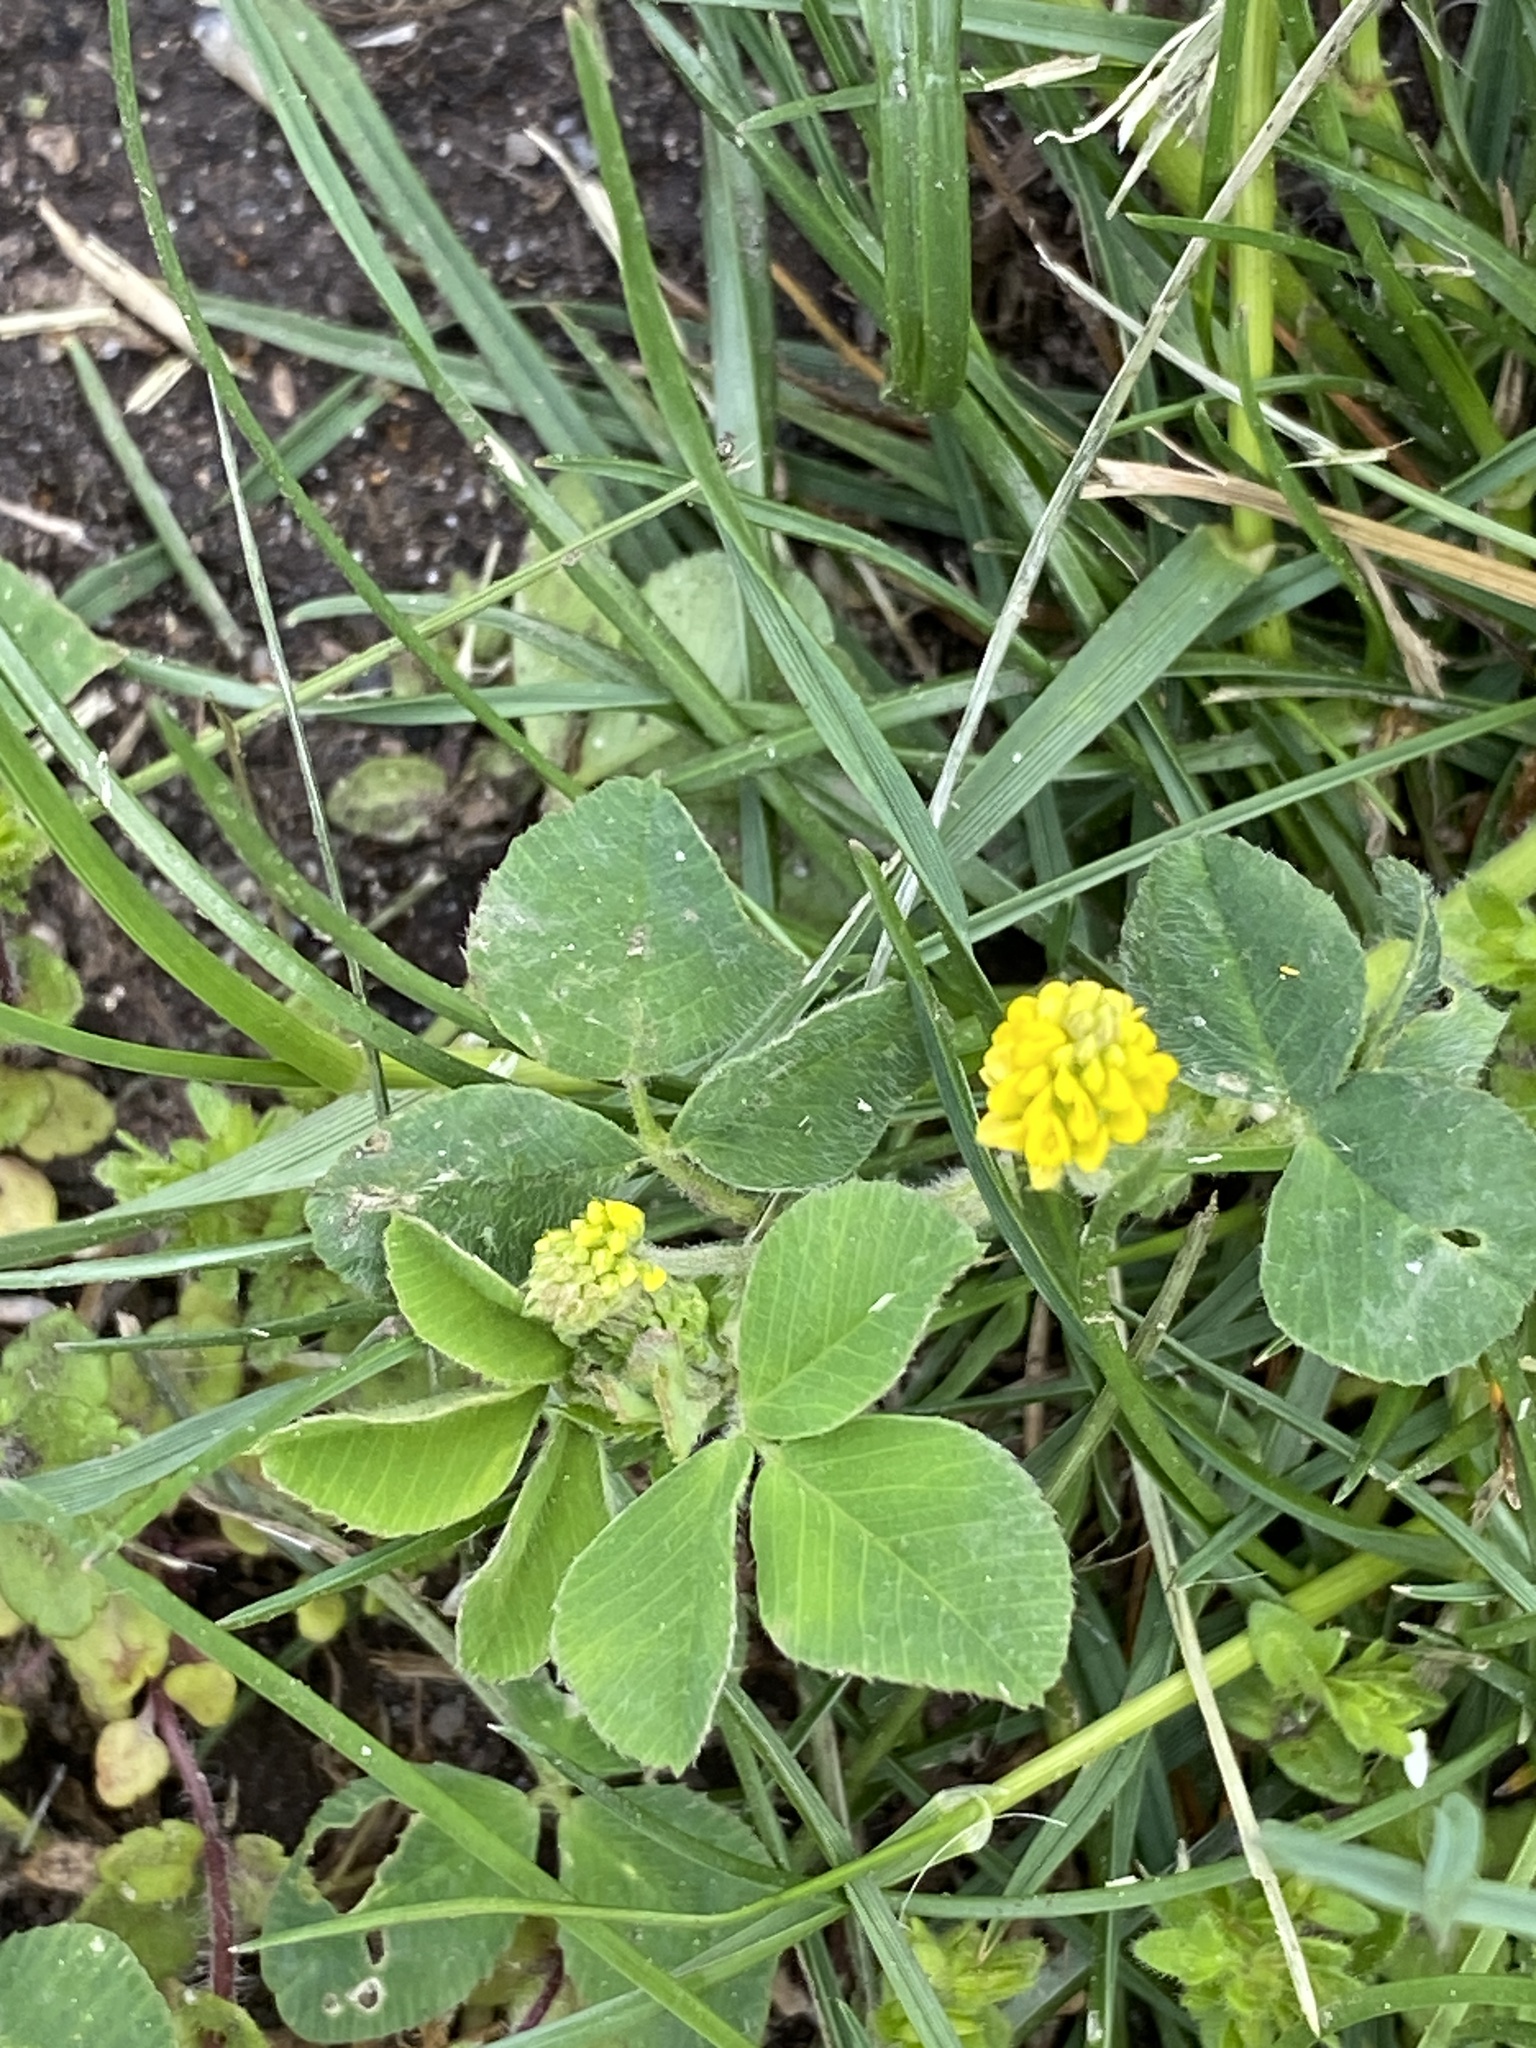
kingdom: Plantae
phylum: Tracheophyta
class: Magnoliopsida
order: Fabales
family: Fabaceae
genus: Medicago
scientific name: Medicago lupulina
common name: Black medick
